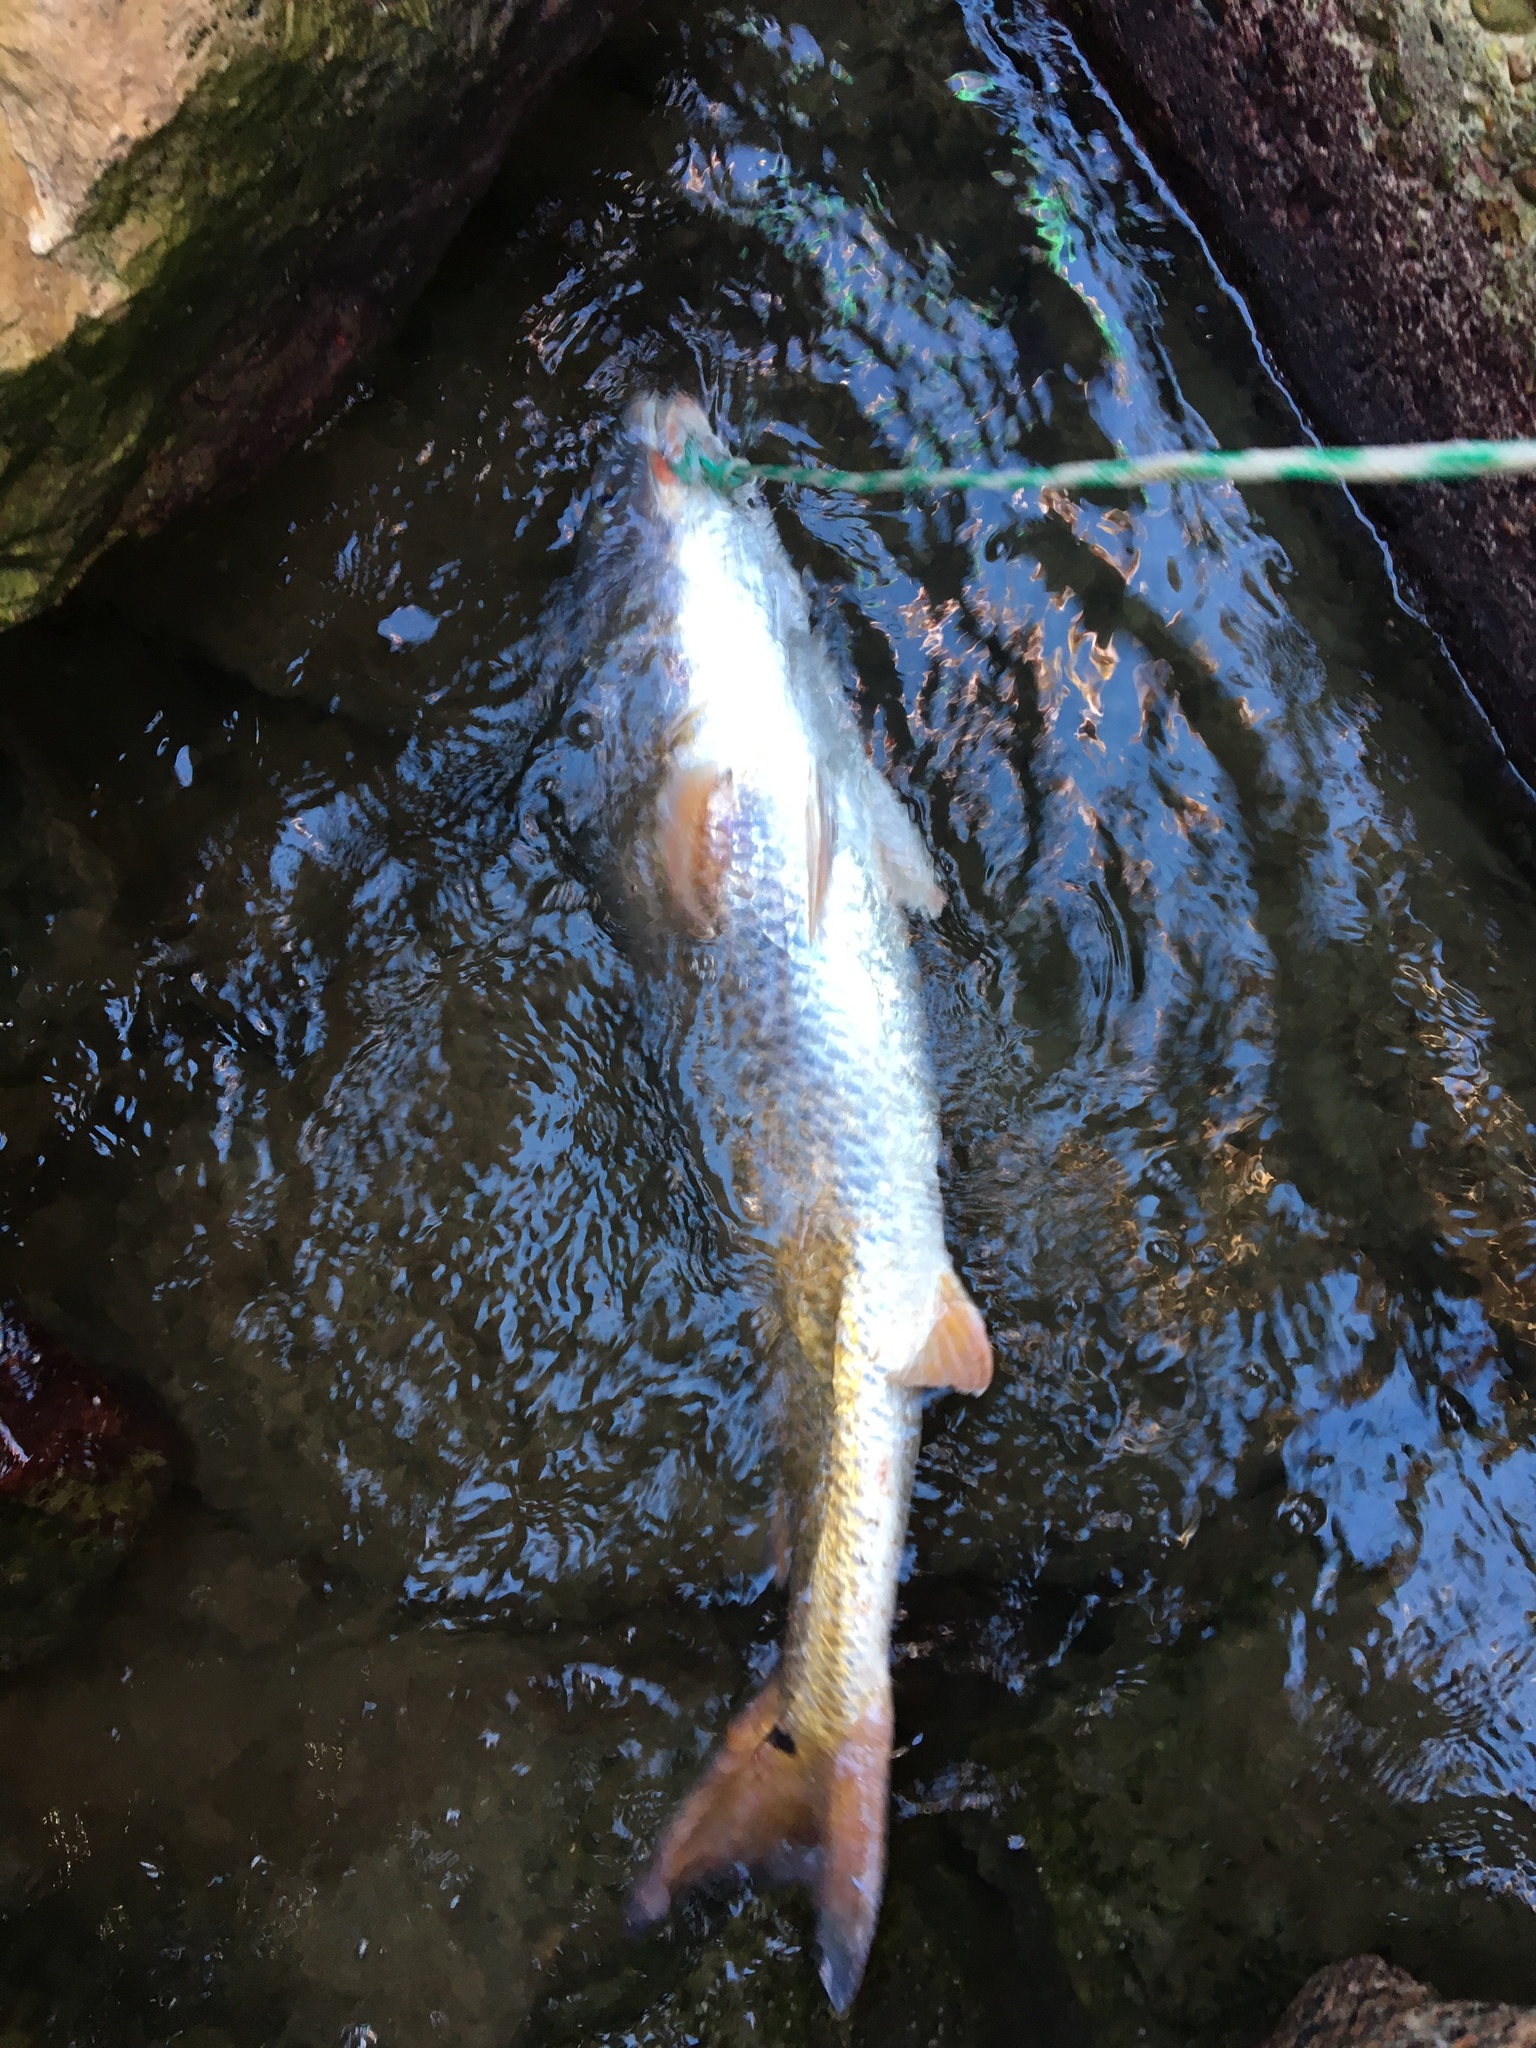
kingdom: Animalia
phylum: Chordata
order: Perciformes
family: Sciaenidae
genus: Sciaenops
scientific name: Sciaenops ocellatus
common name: Red drum
